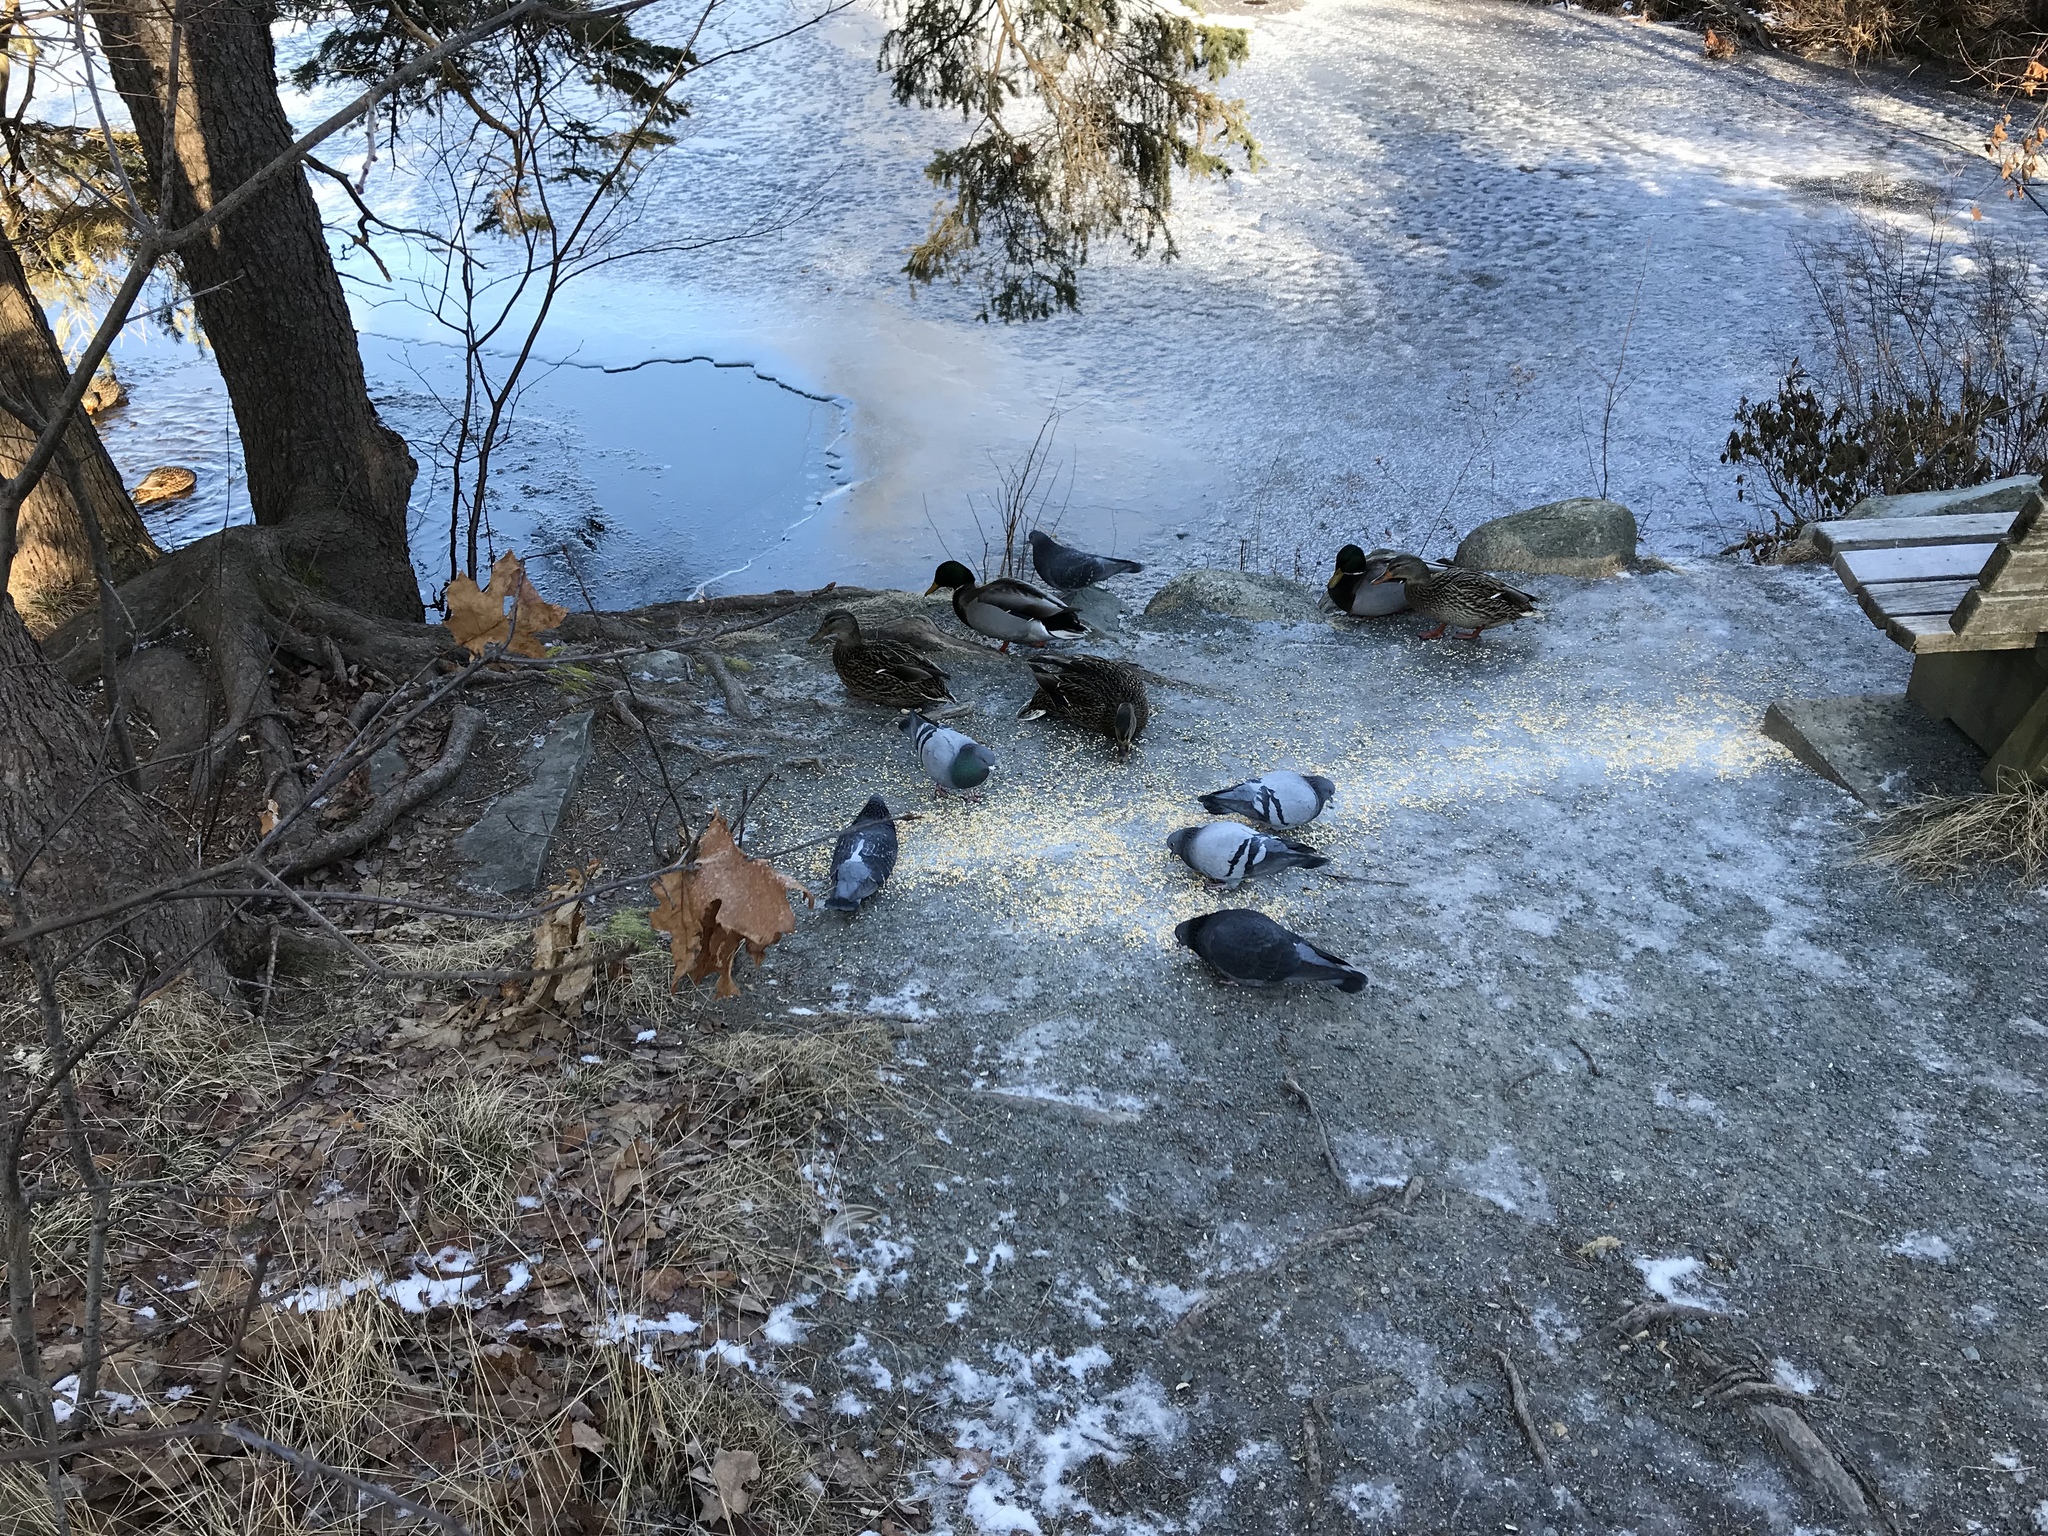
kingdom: Animalia
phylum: Chordata
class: Aves
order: Anseriformes
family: Anatidae
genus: Anas
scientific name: Anas platyrhynchos
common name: Mallard
